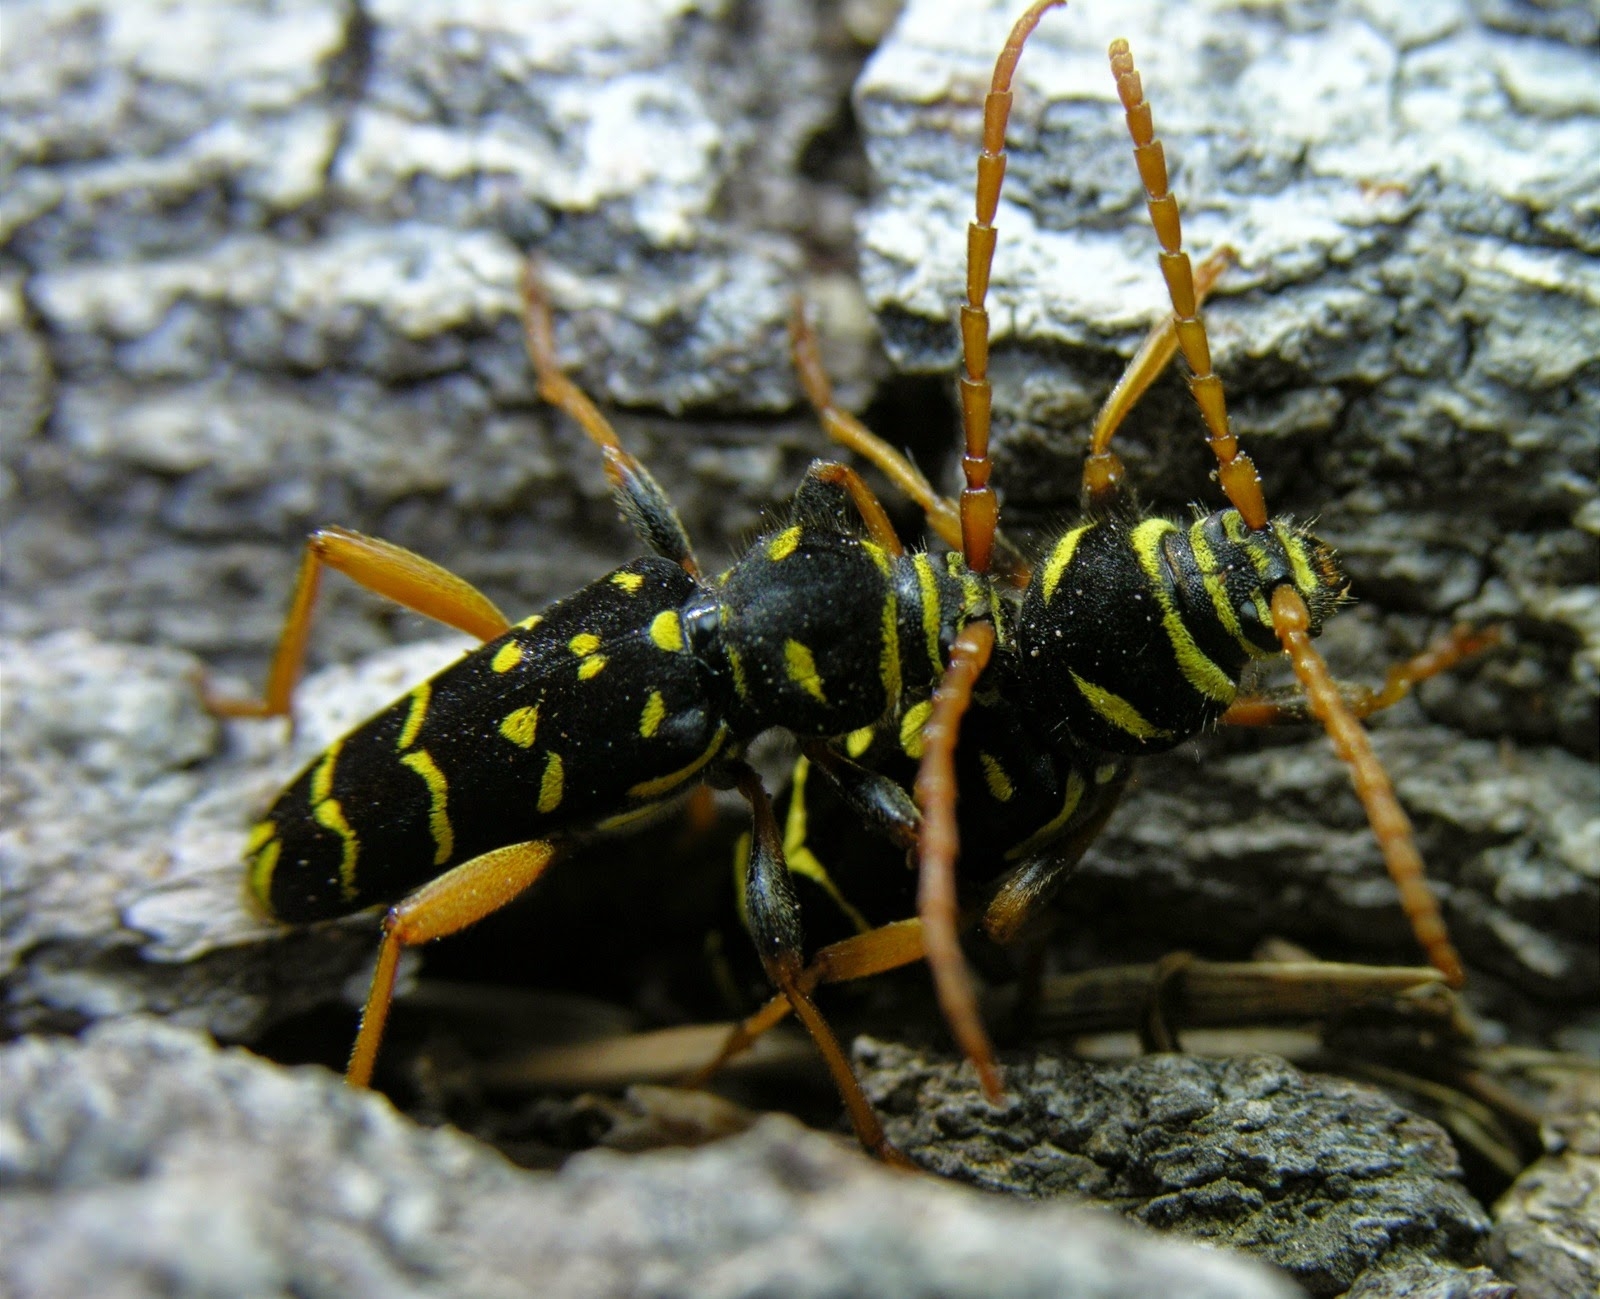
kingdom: Animalia
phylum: Arthropoda
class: Insecta
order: Coleoptera
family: Cerambycidae
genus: Plagionotus
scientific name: Plagionotus arcuatus
